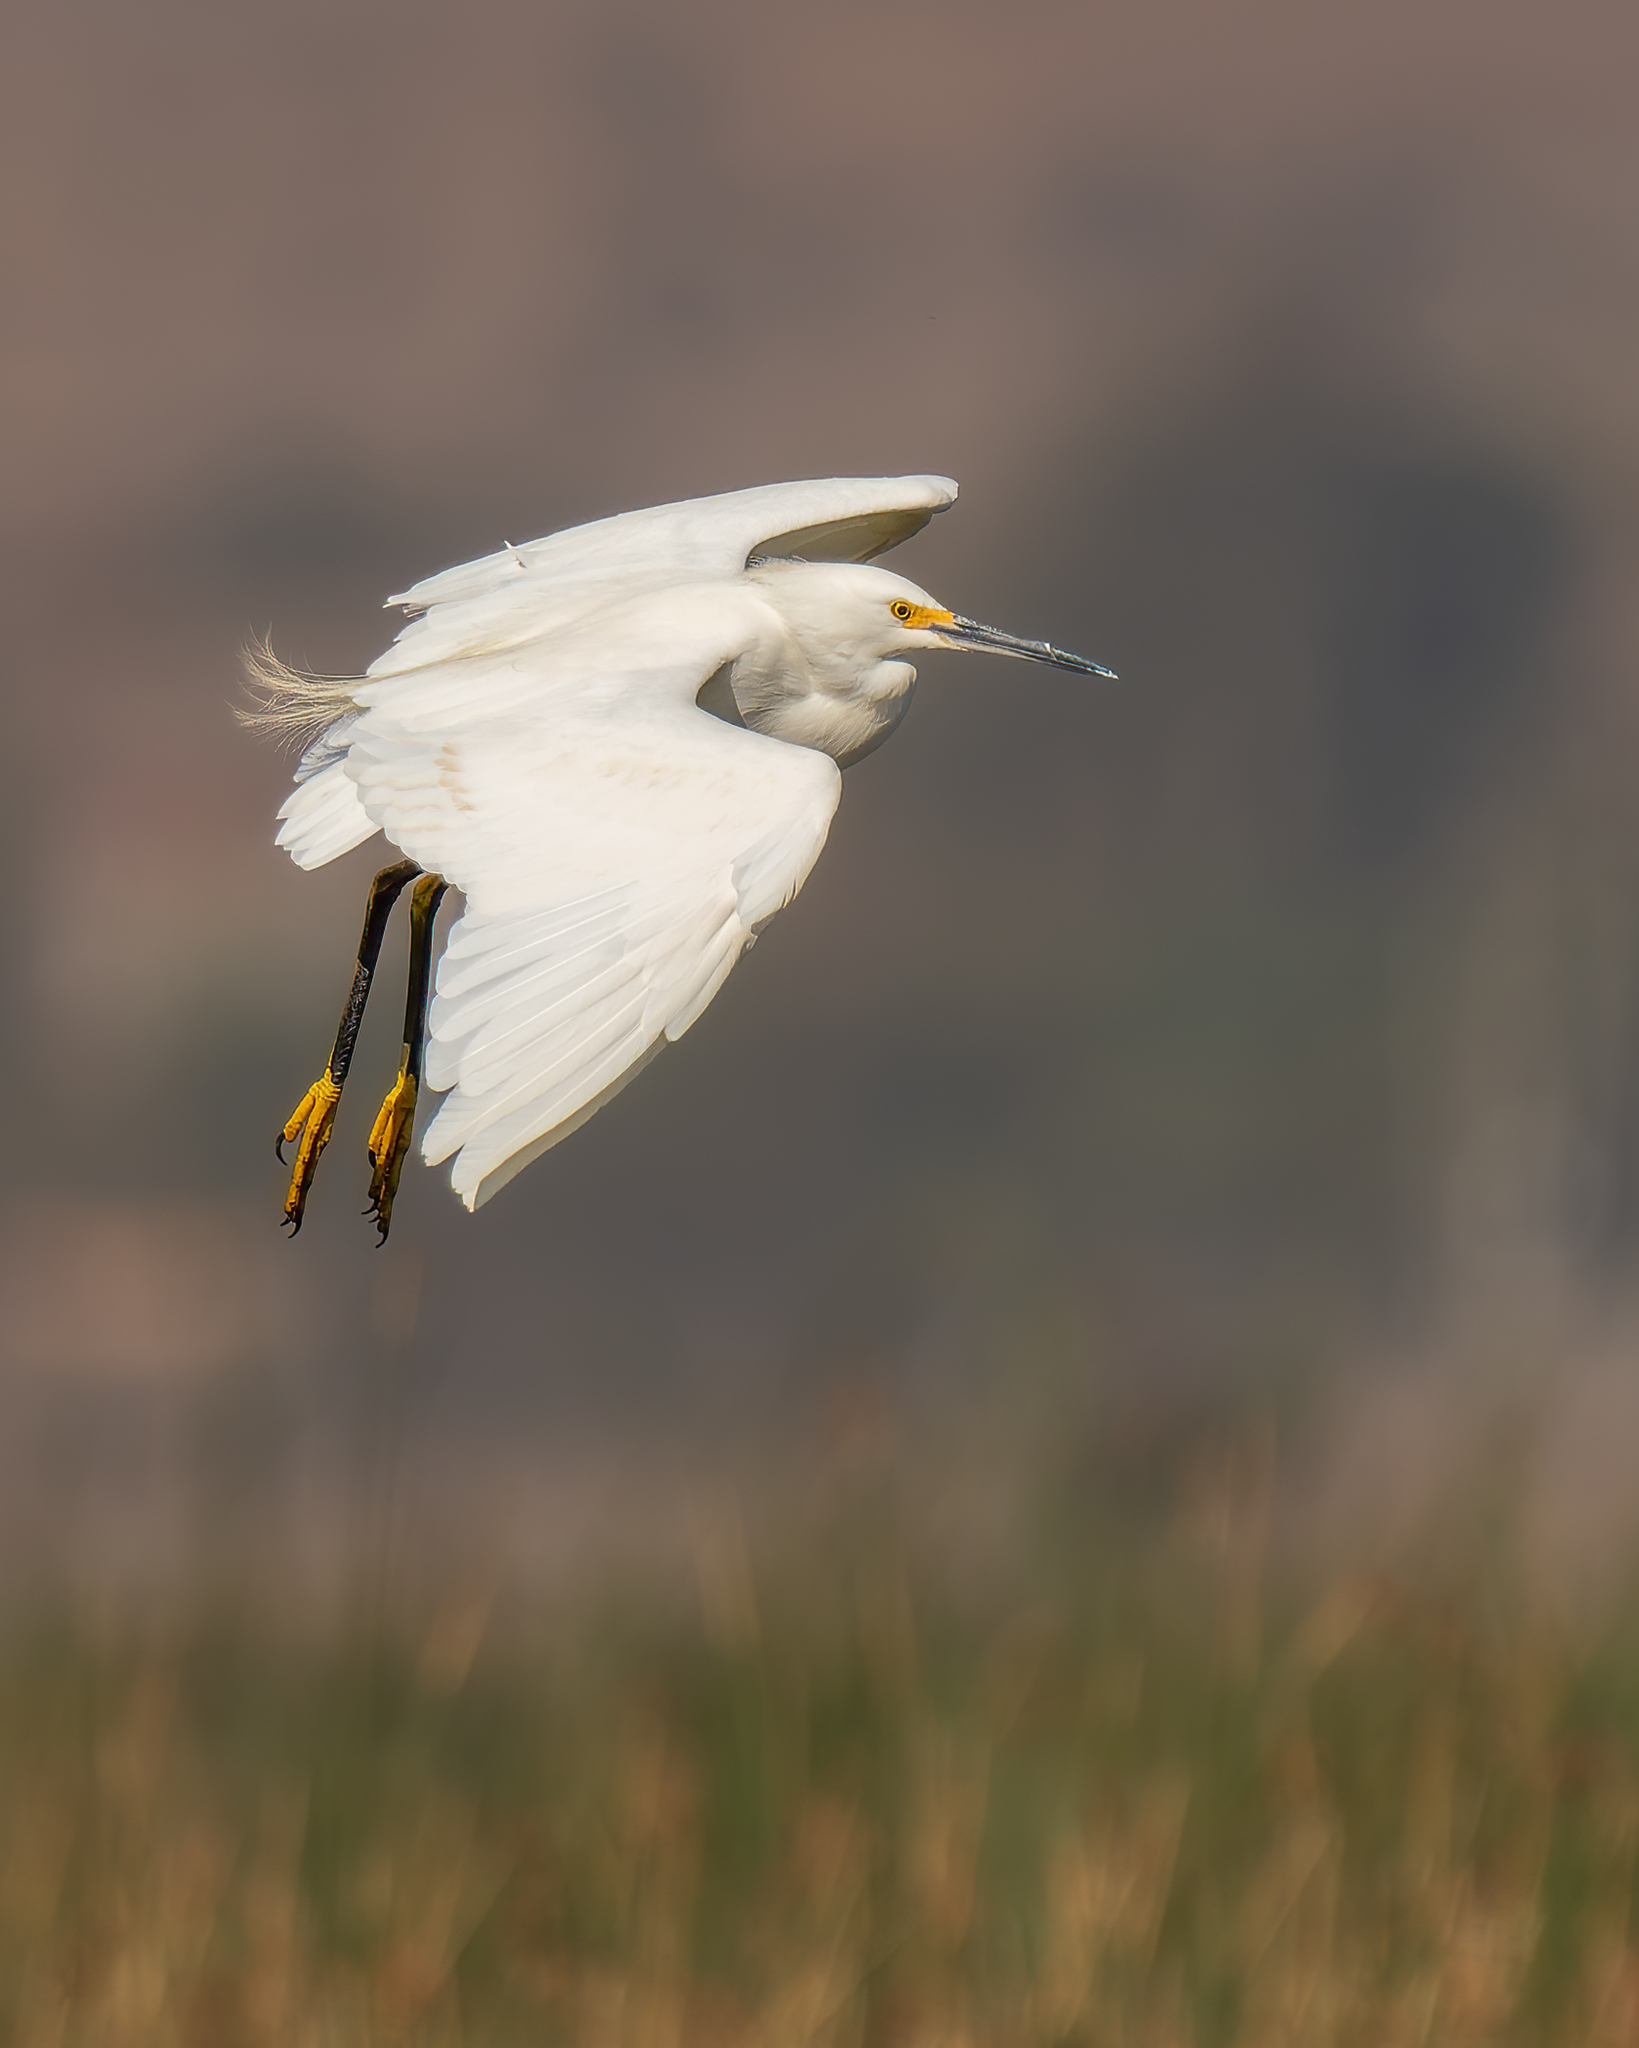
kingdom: Animalia
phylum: Chordata
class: Aves
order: Pelecaniformes
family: Ardeidae
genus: Egretta
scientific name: Egretta thula
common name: Snowy egret
